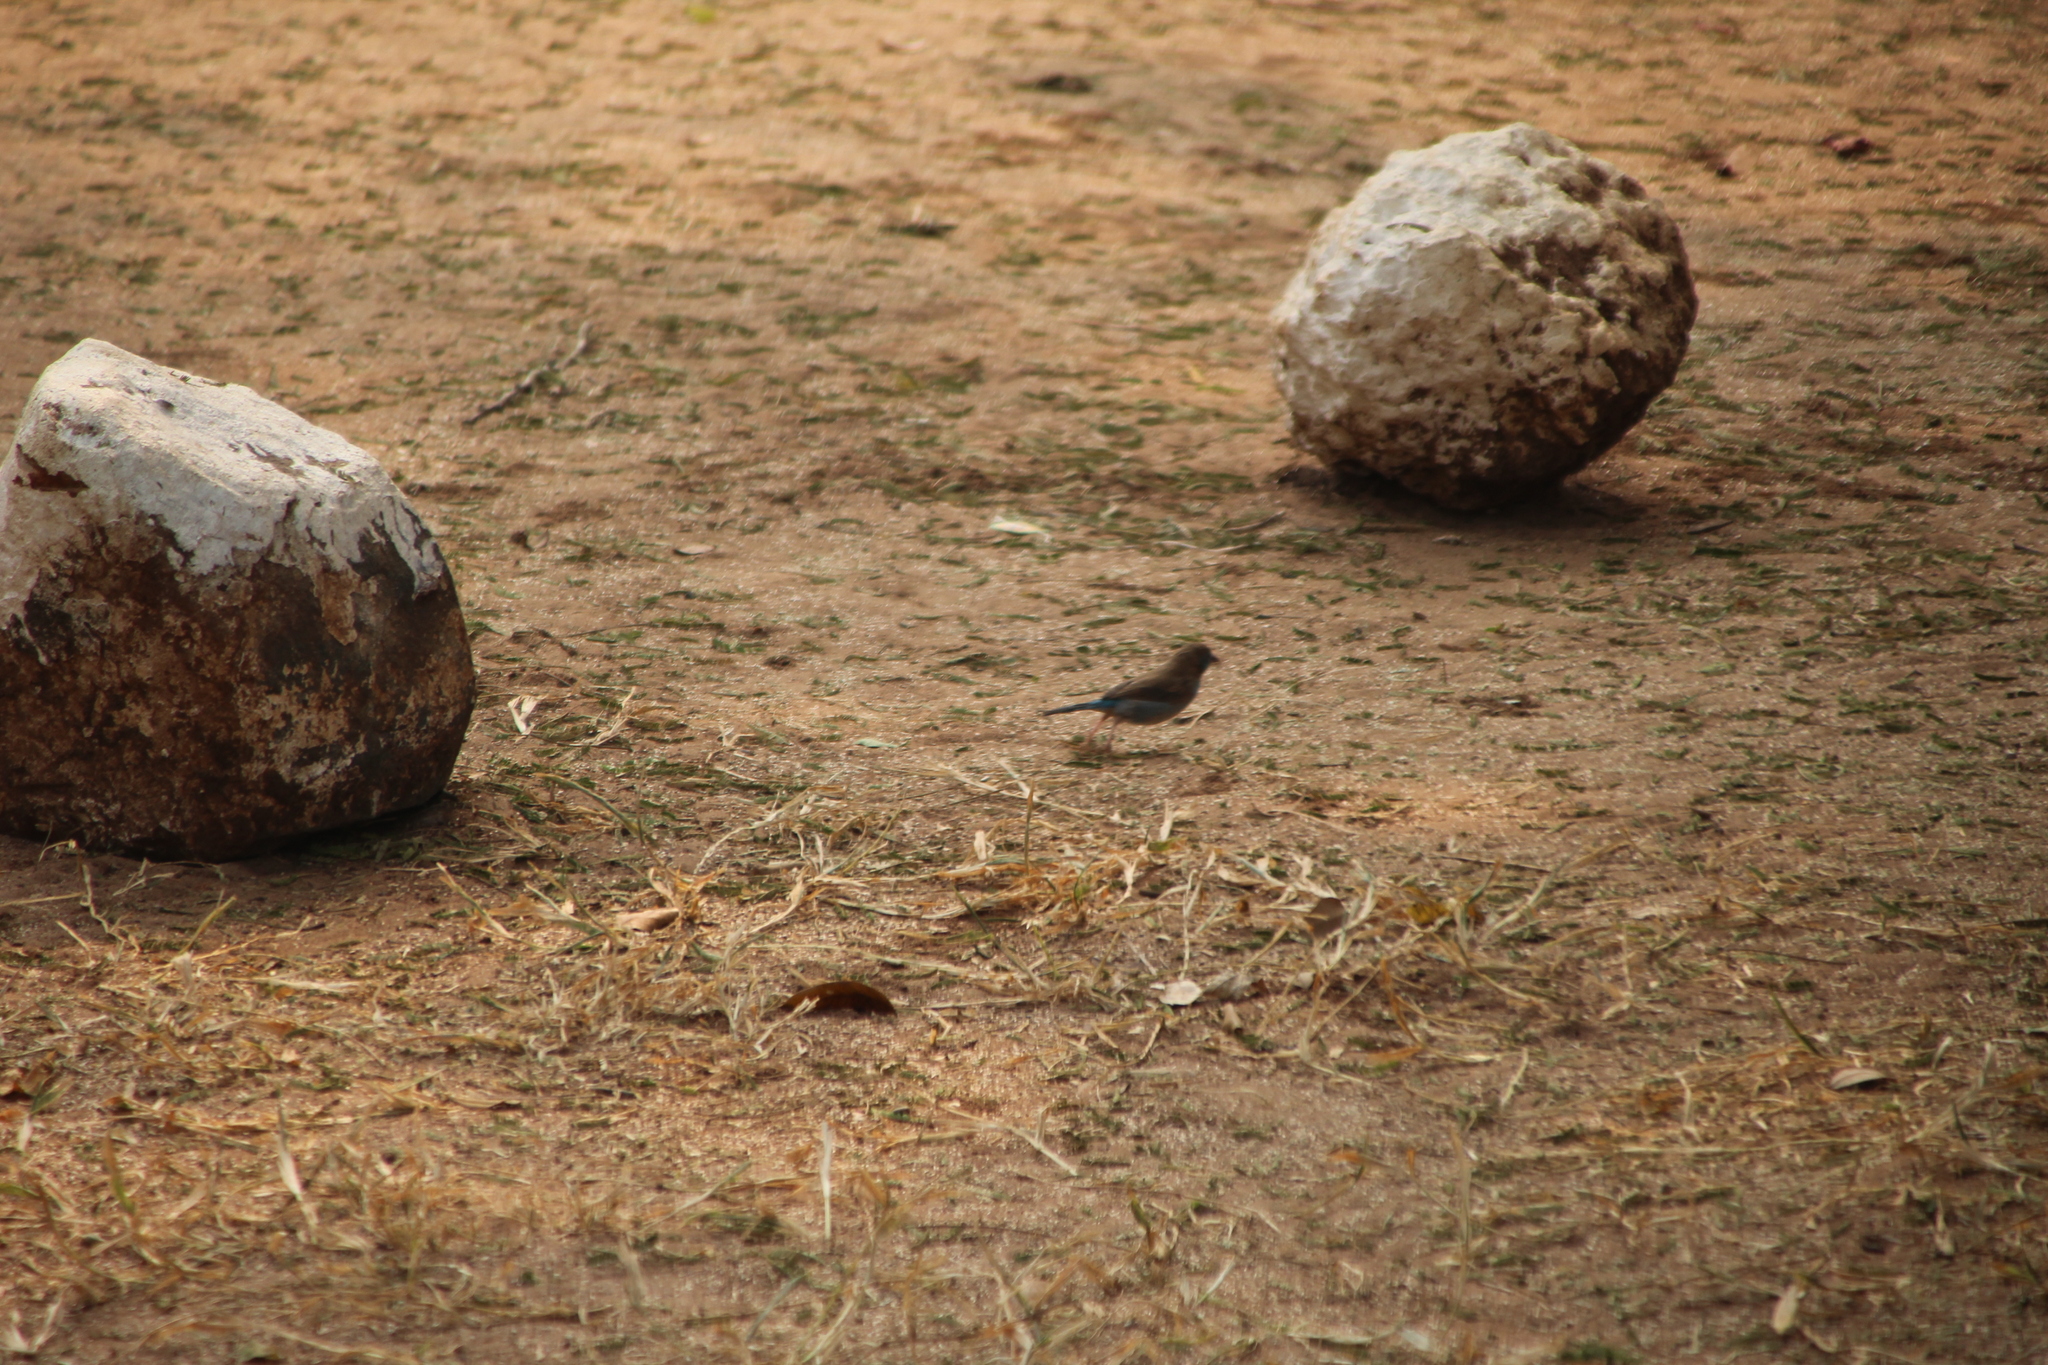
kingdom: Animalia
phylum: Chordata
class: Aves
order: Passeriformes
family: Estrildidae
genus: Uraeginthus
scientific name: Uraeginthus bengalus
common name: Red-cheeked cordon-bleu
